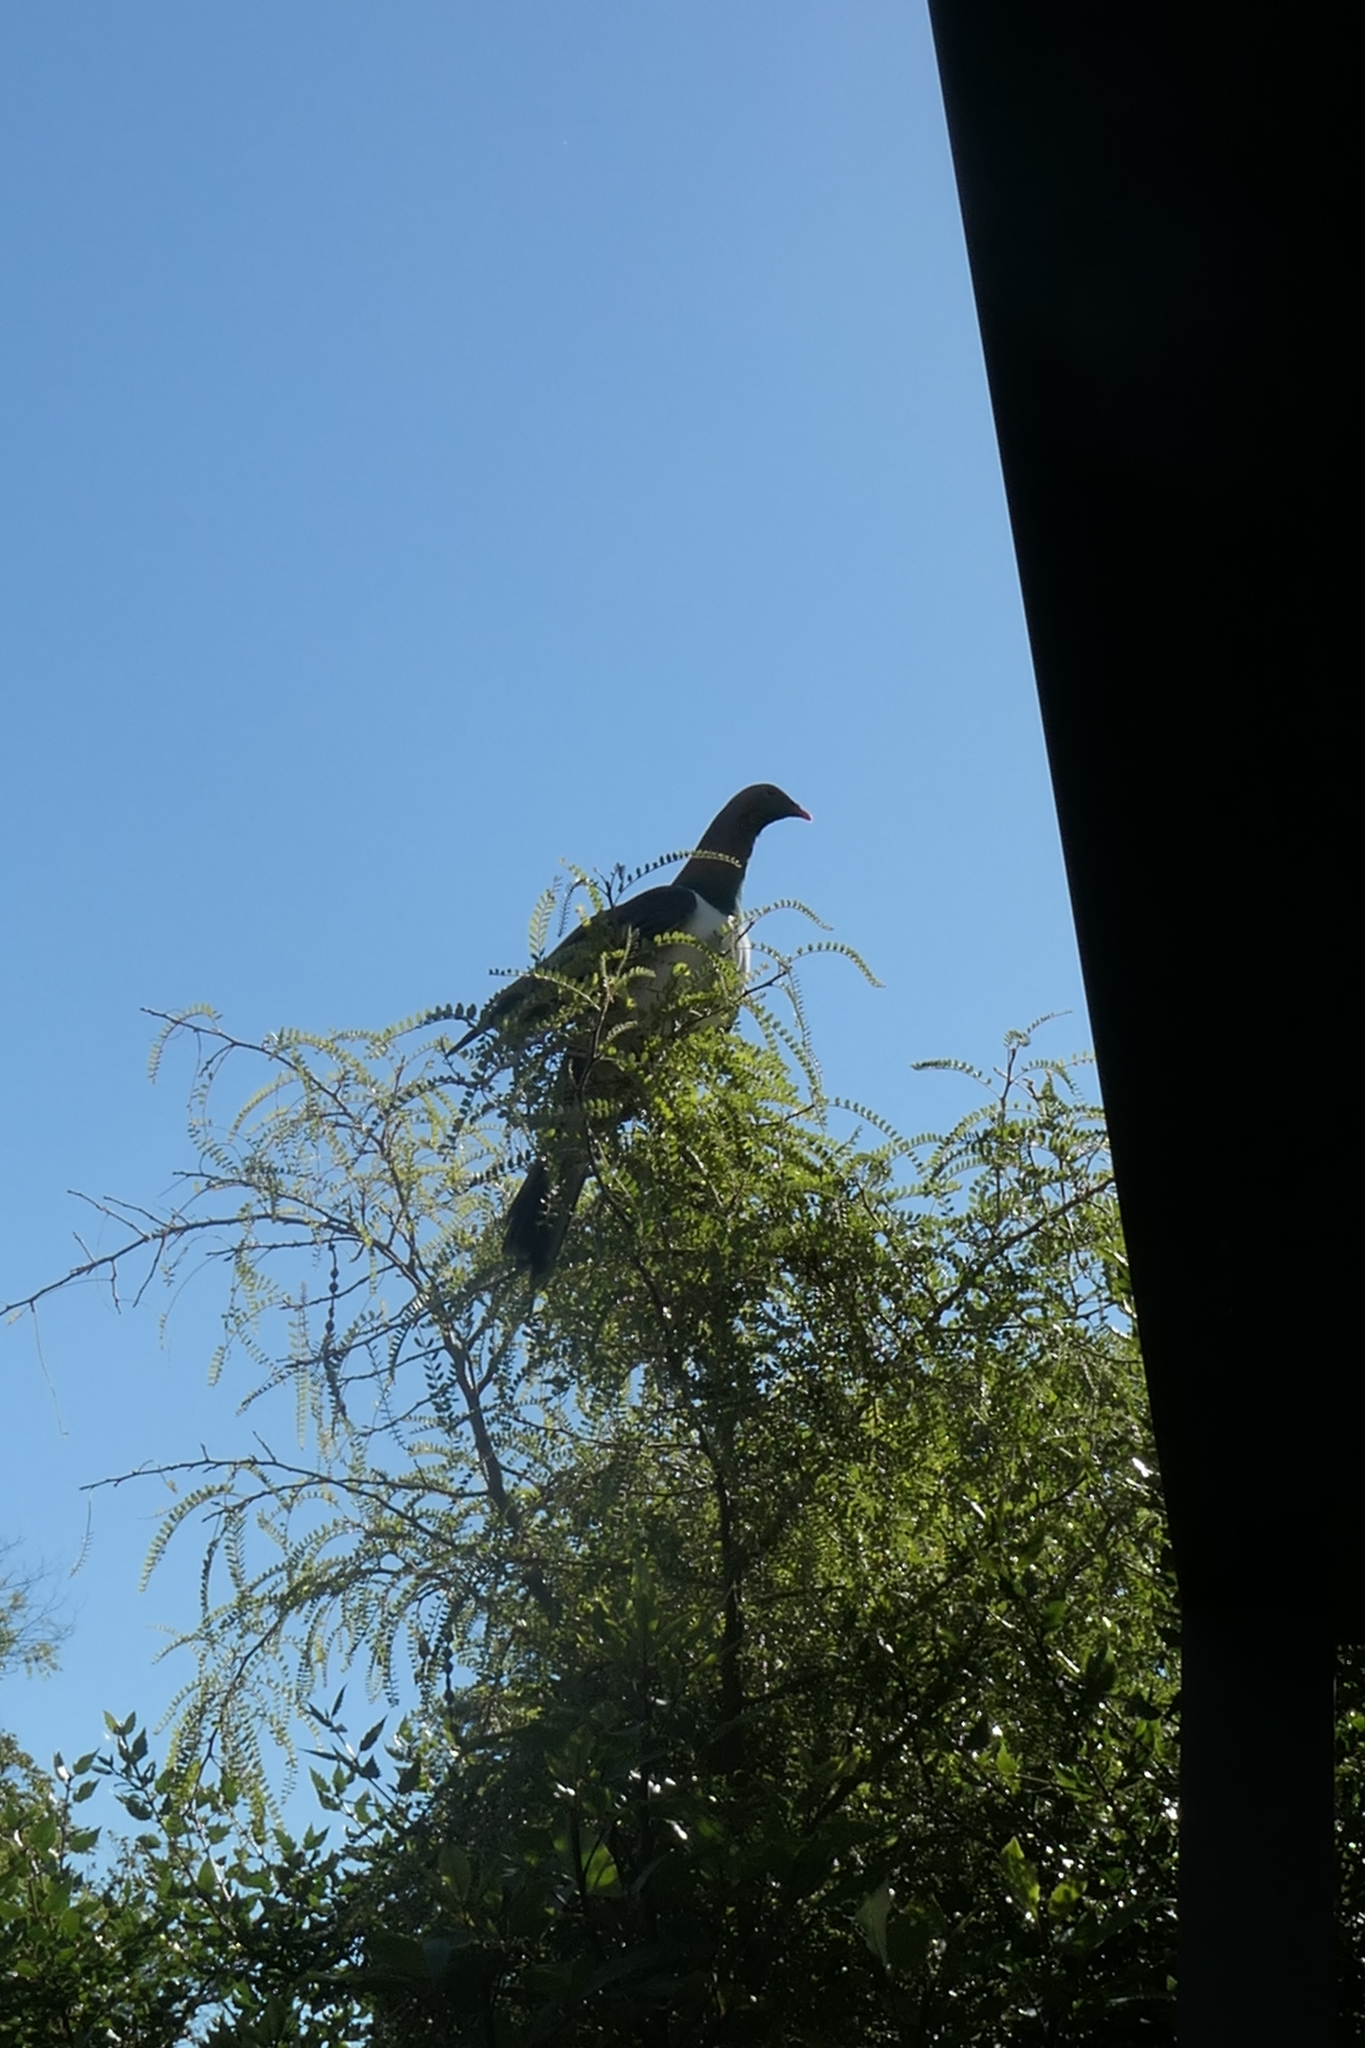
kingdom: Animalia
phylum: Chordata
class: Aves
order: Columbiformes
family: Columbidae
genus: Hemiphaga
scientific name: Hemiphaga novaeseelandiae
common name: New zealand pigeon
